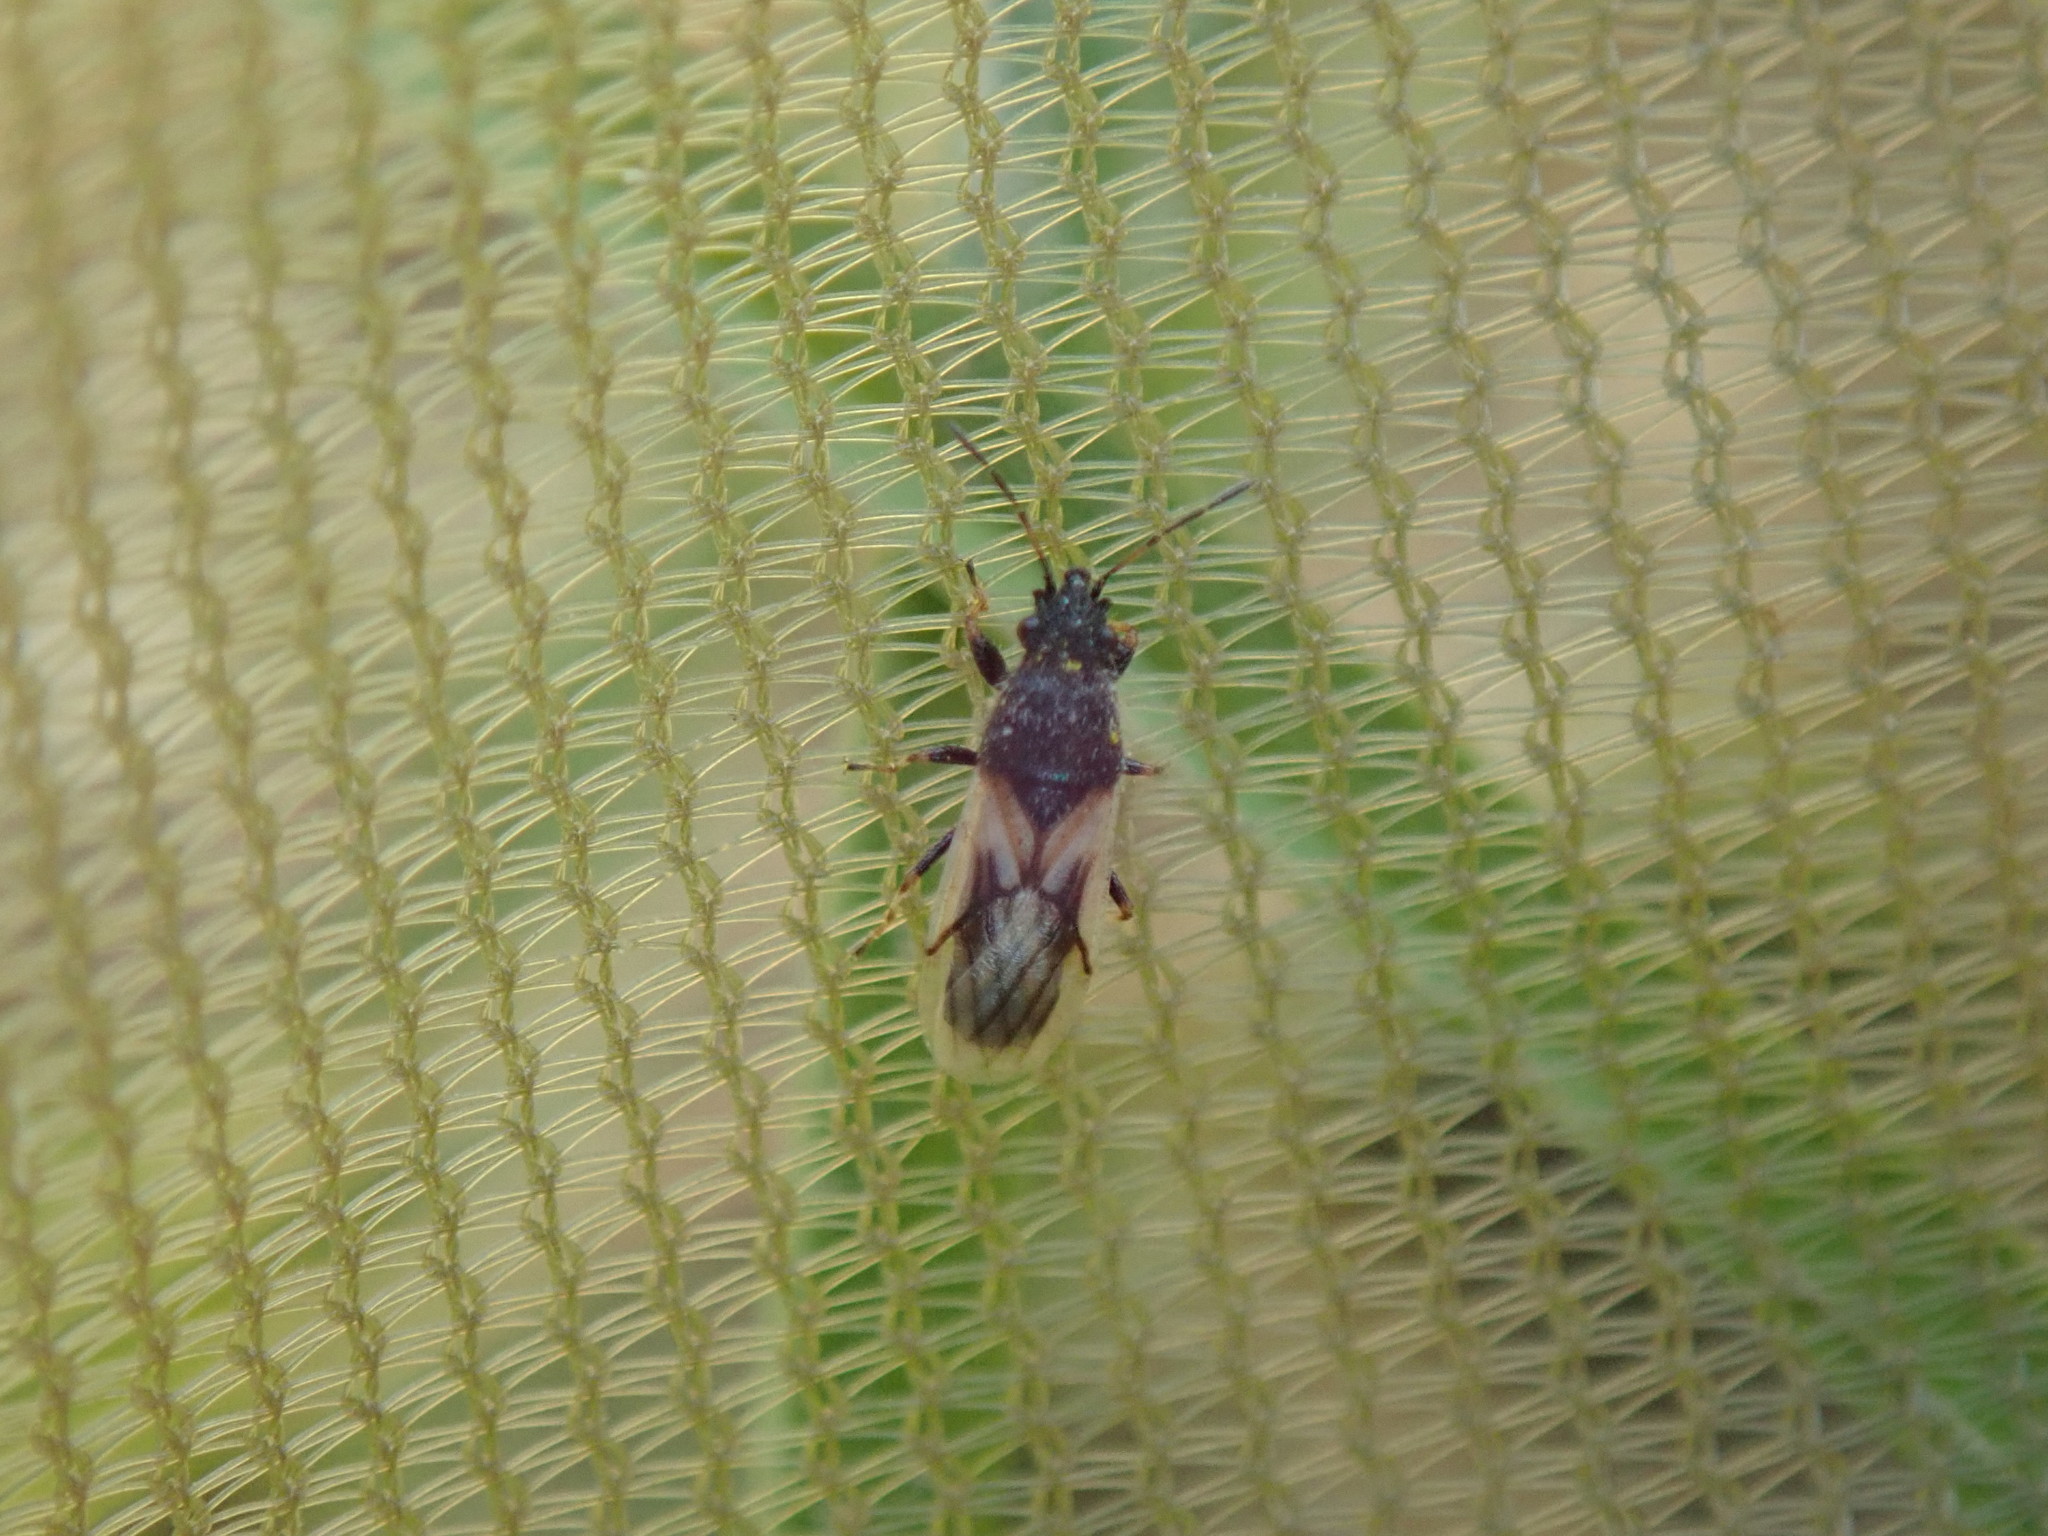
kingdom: Animalia
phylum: Arthropoda
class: Insecta
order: Hemiptera
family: Oxycarenidae
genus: Metopoplax
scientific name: Metopoplax ditomoides
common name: Seed bug
